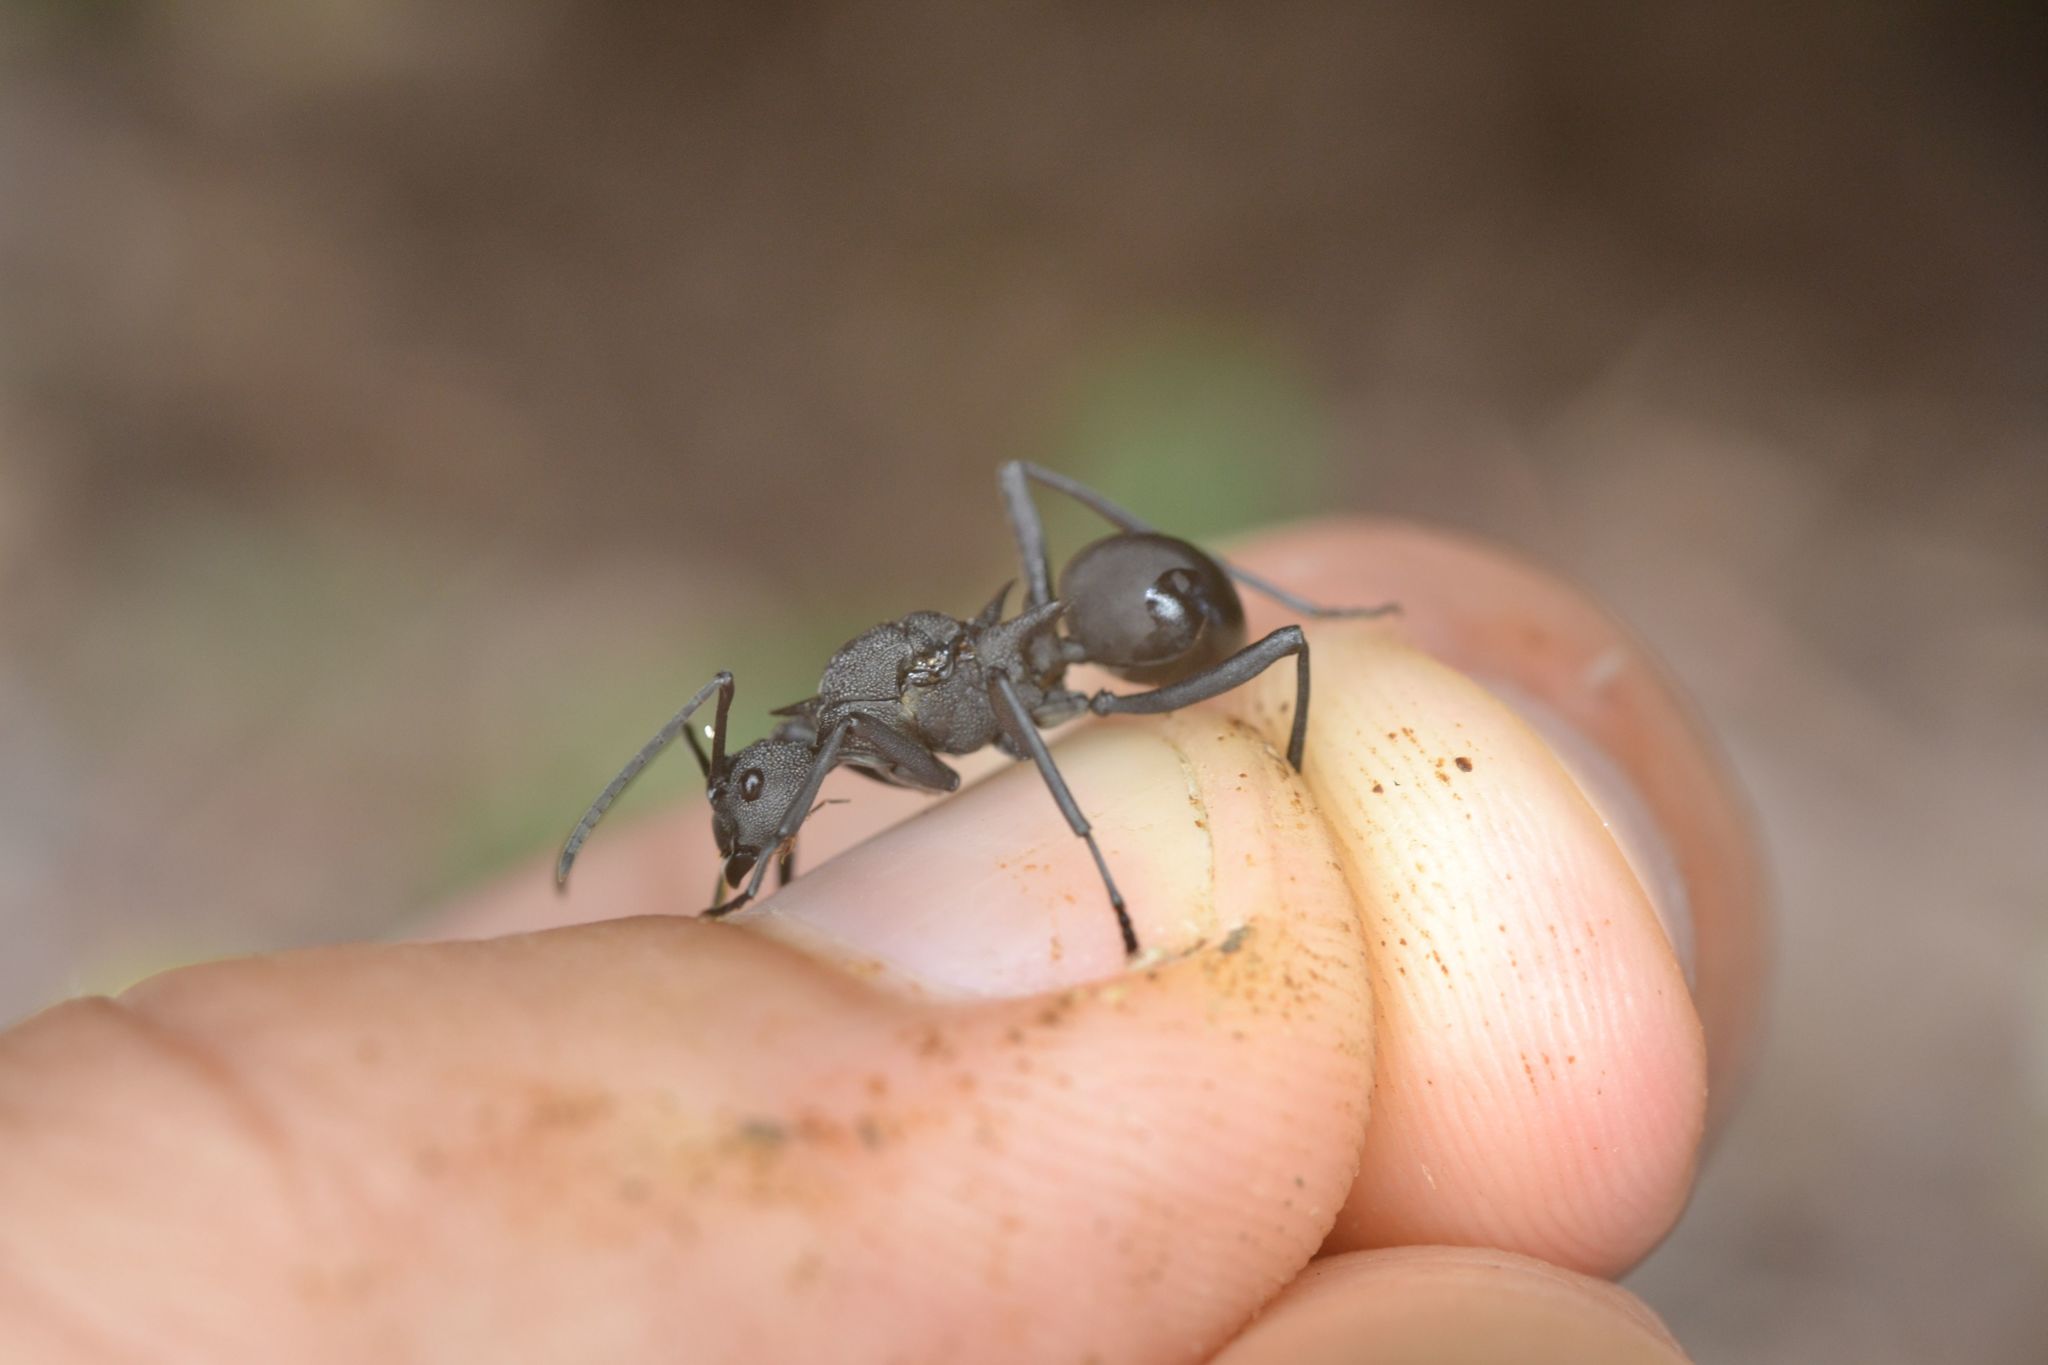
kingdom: Animalia
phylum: Arthropoda
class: Insecta
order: Hymenoptera
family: Formicidae
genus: Polyrhachis
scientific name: Polyrhachis armata
